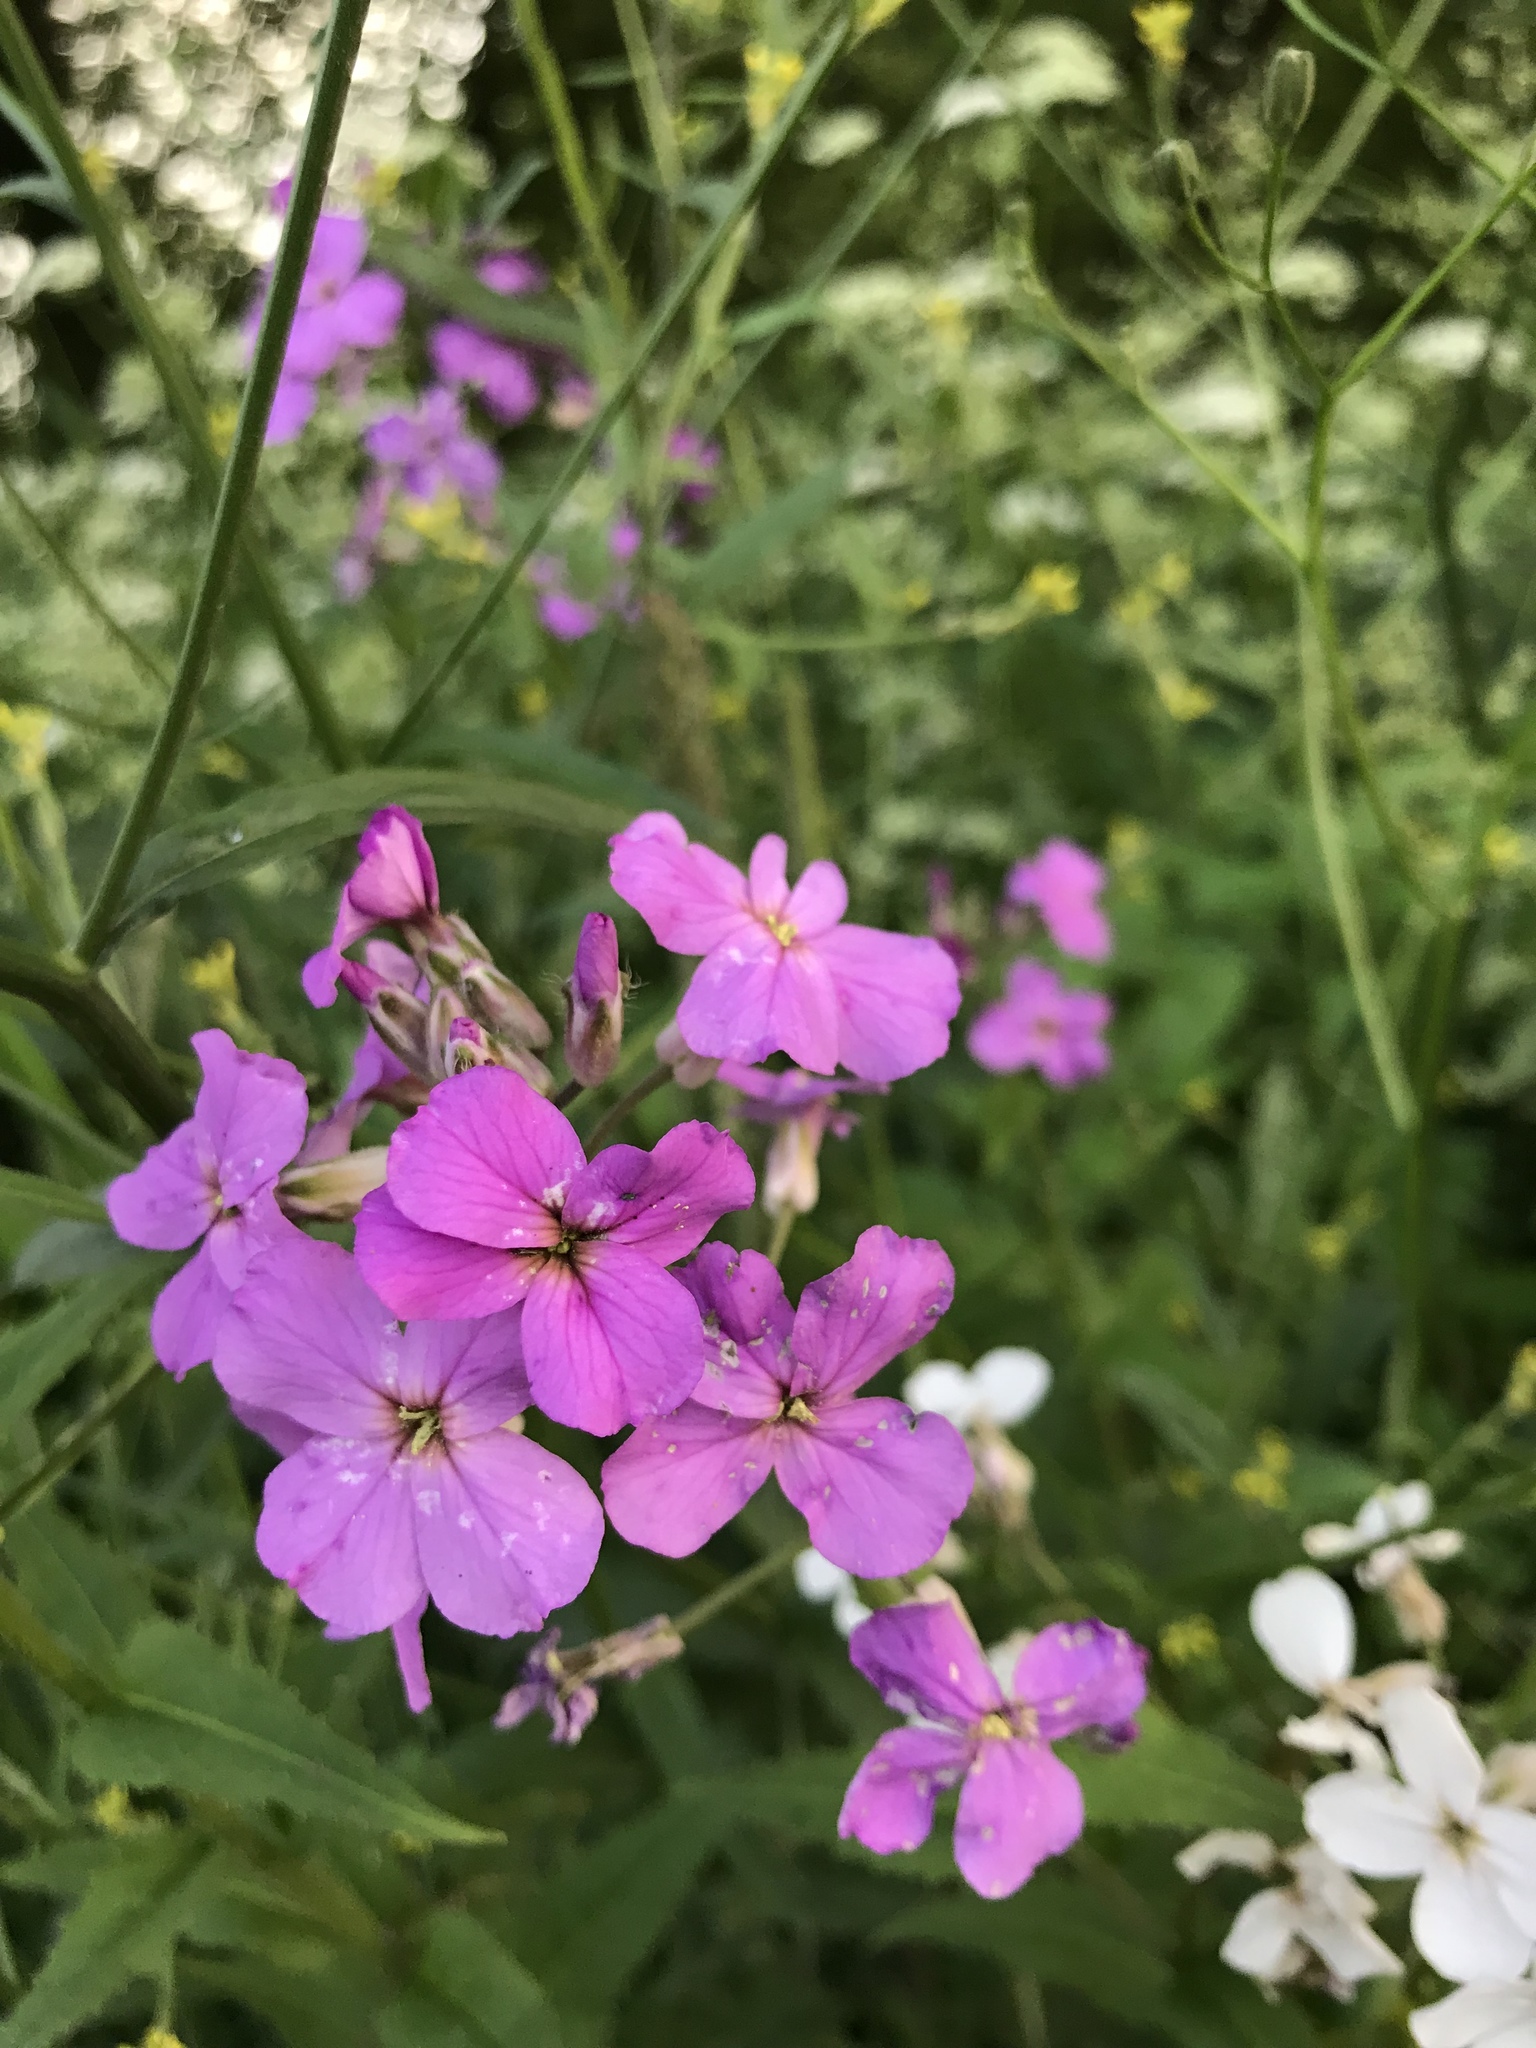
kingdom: Plantae
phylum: Tracheophyta
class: Magnoliopsida
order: Brassicales
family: Brassicaceae
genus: Hesperis
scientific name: Hesperis matronalis
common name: Dame's-violet
